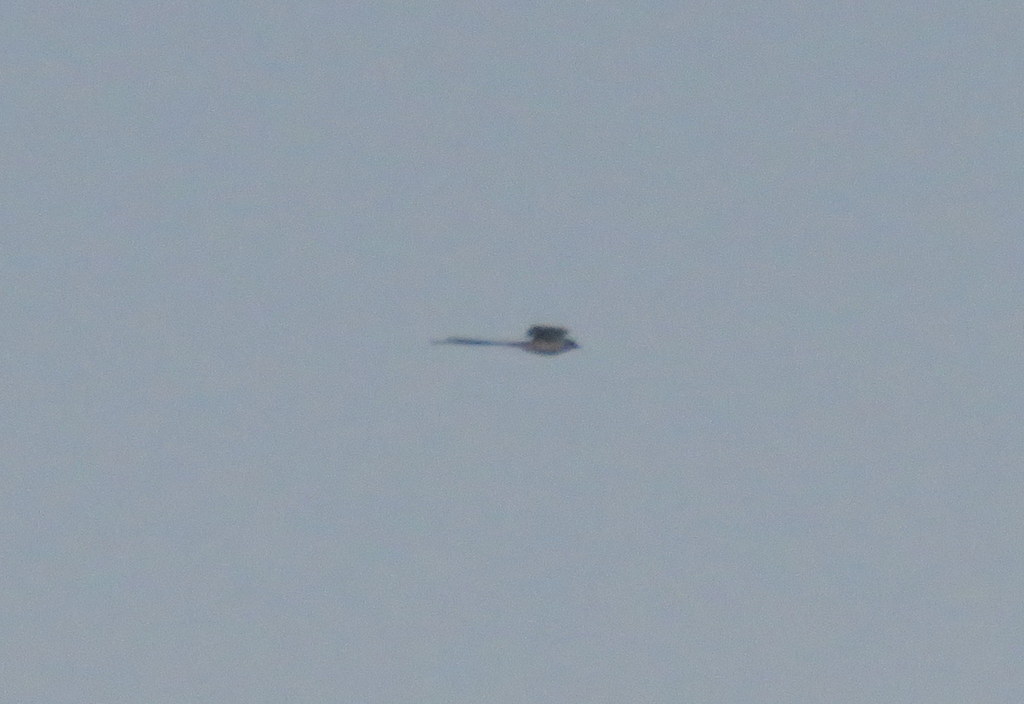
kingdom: Animalia
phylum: Chordata
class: Aves
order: Passeriformes
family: Tyrannidae
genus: Tyrannus
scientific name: Tyrannus savana
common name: Fork-tailed flycatcher
